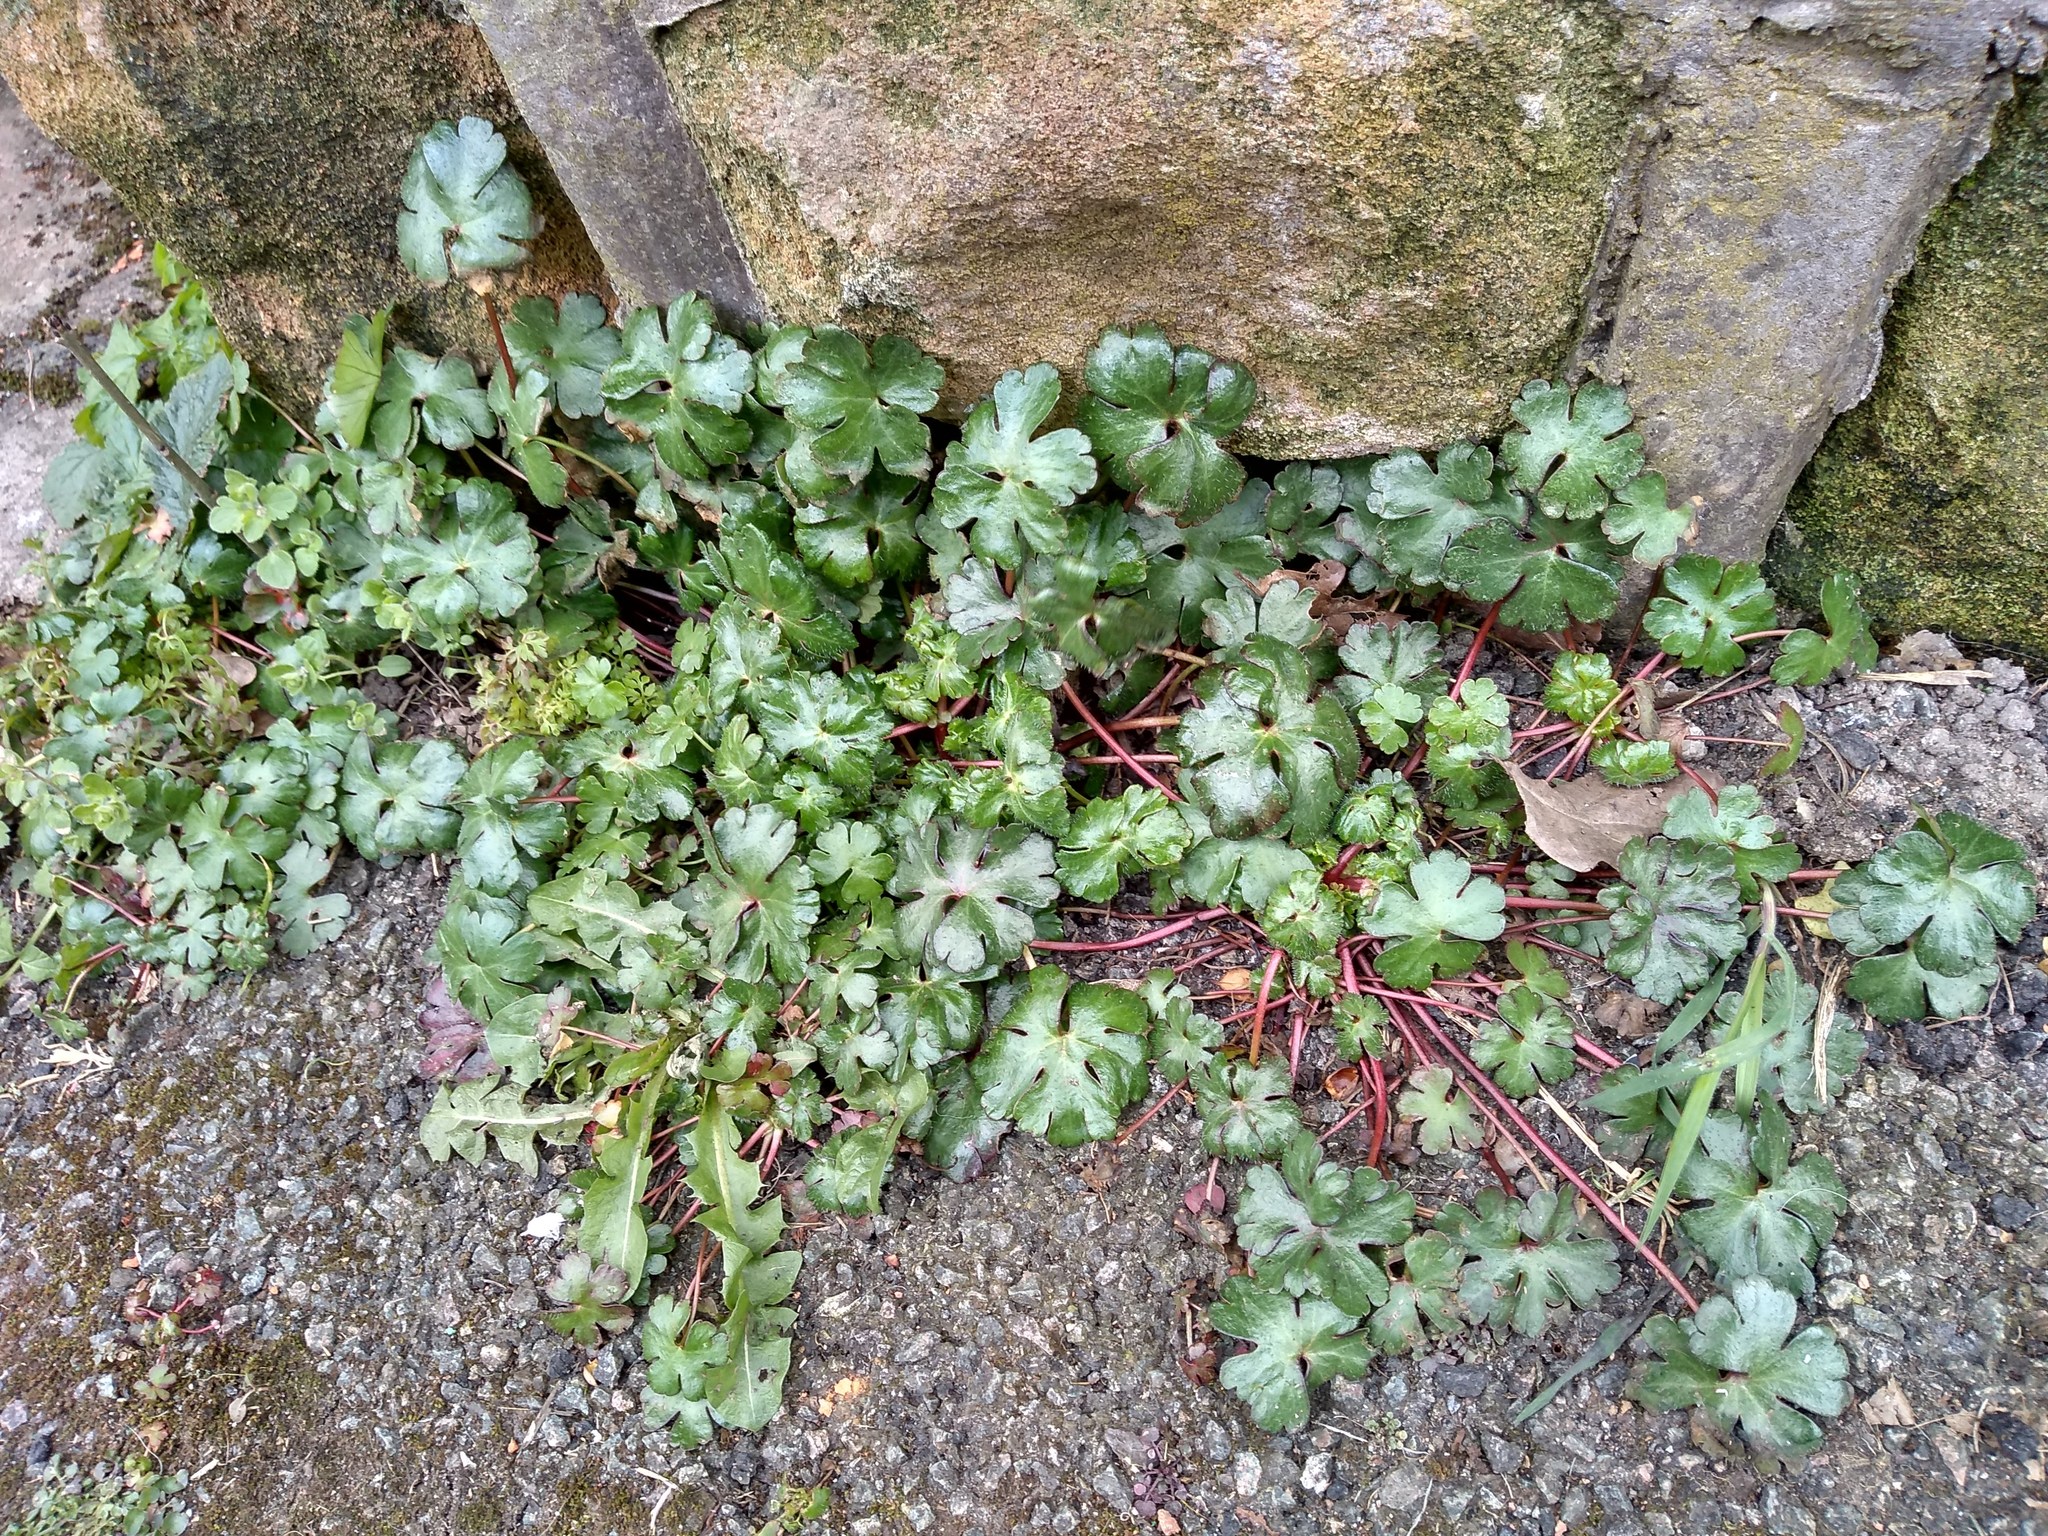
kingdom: Plantae
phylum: Tracheophyta
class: Magnoliopsida
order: Geraniales
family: Geraniaceae
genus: Geranium
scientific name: Geranium lucidum
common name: Shining crane's-bill
